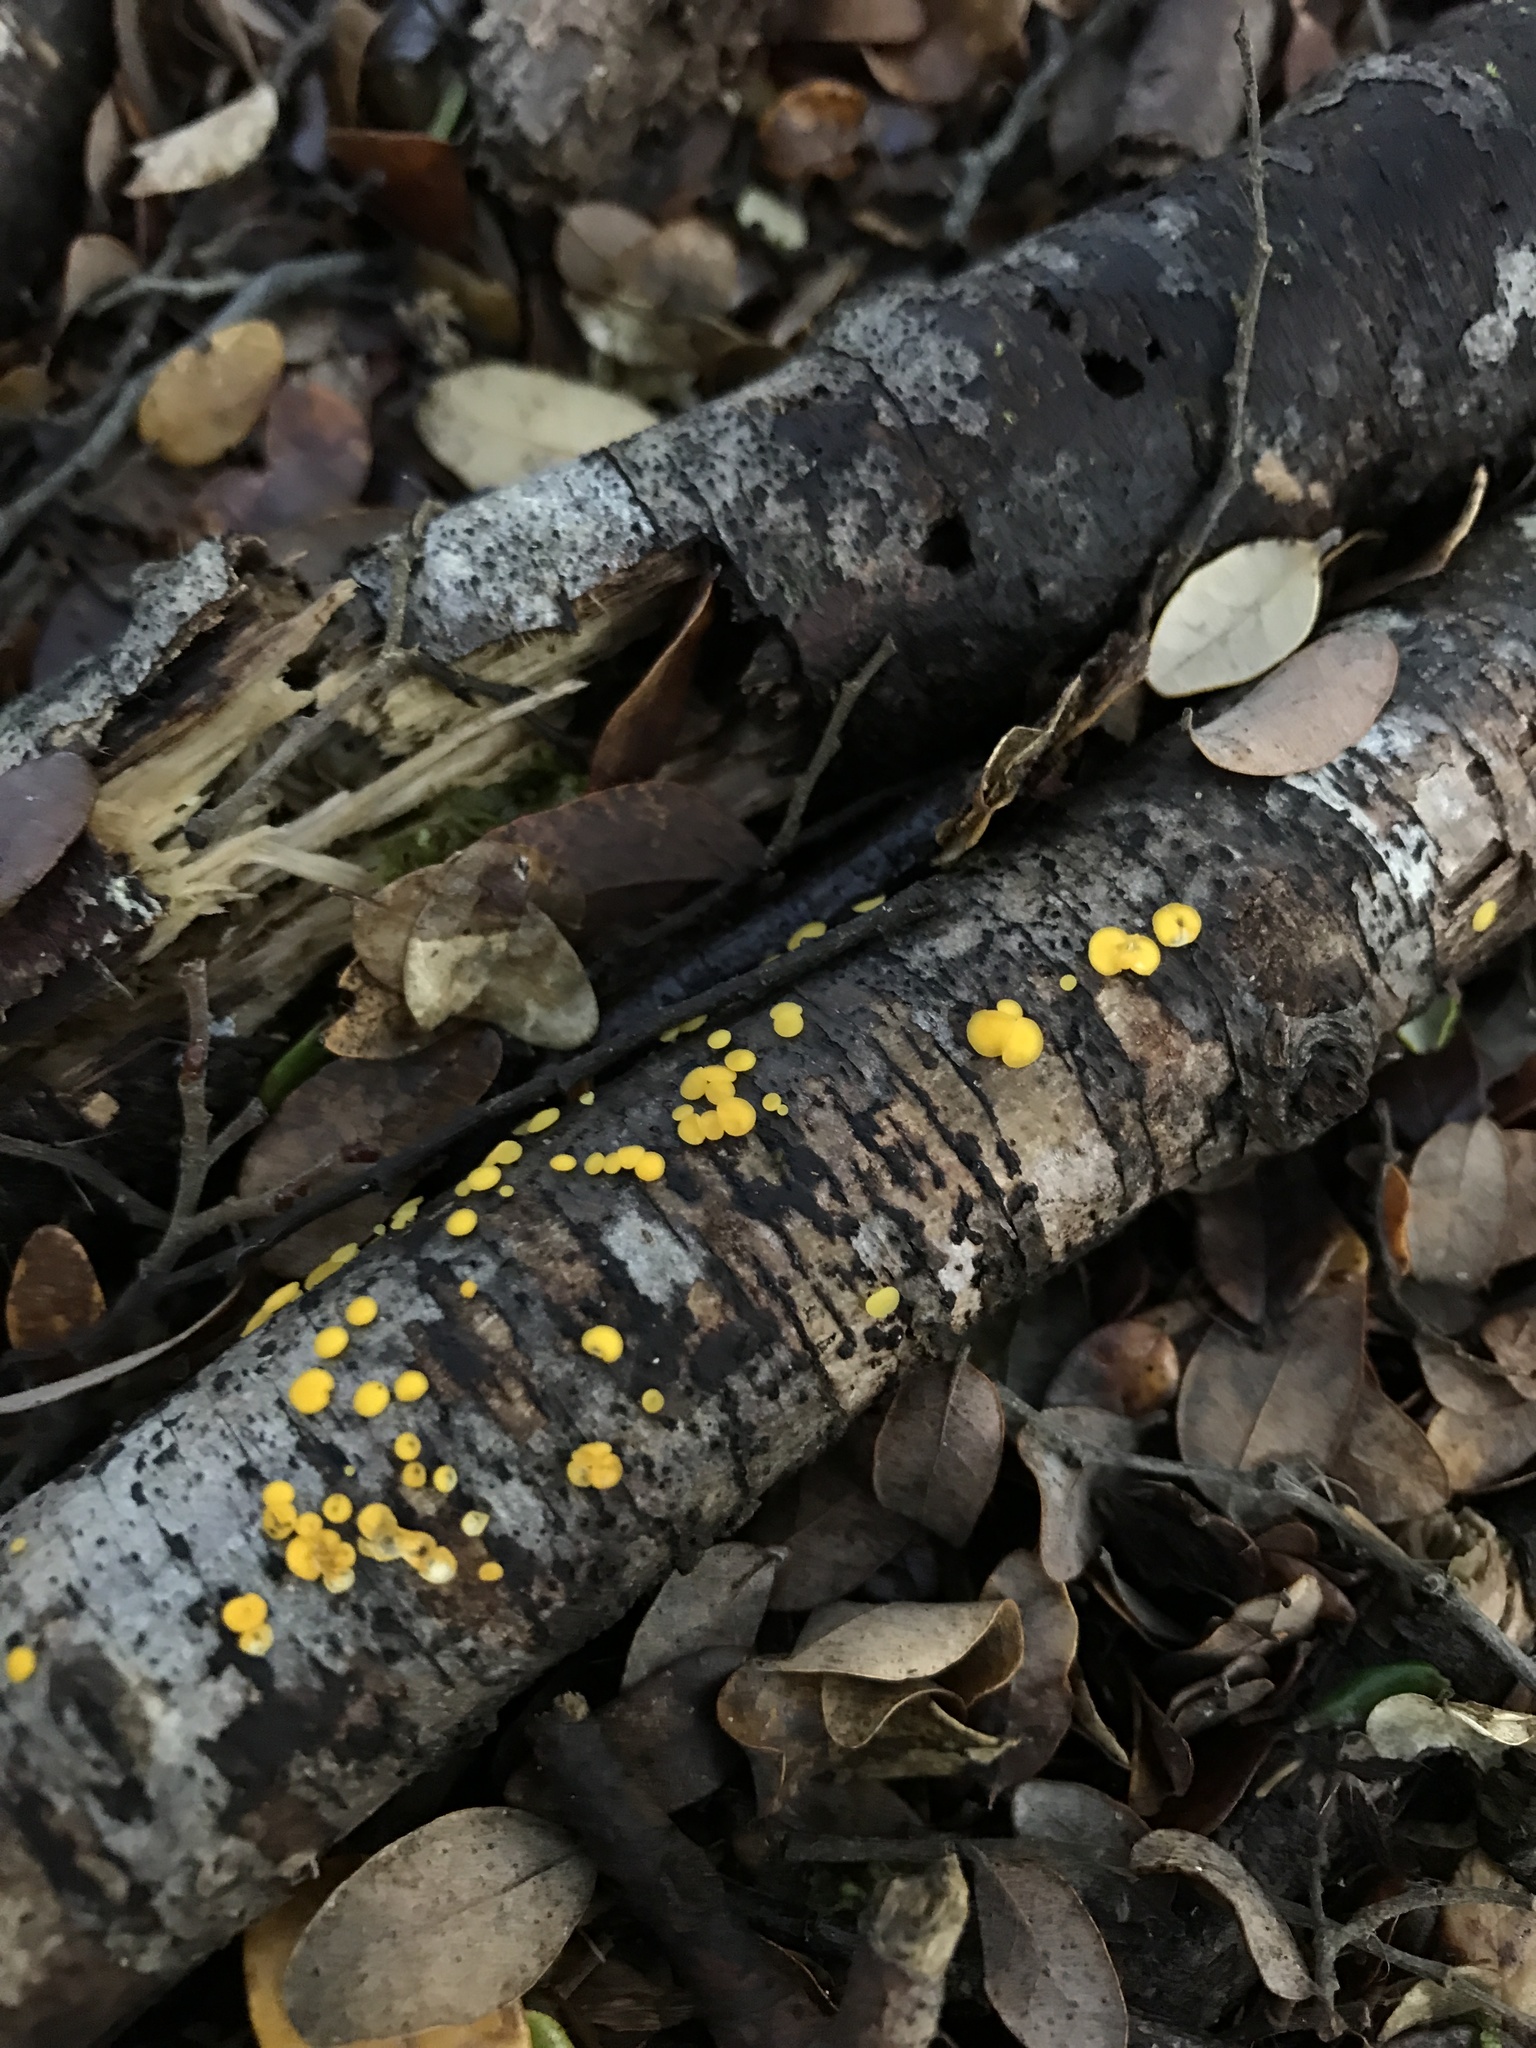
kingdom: Fungi
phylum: Ascomycota
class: Leotiomycetes
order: Helotiales
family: Pezizellaceae
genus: Calycina
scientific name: Calycina citrina
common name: Yellow fairy cups
